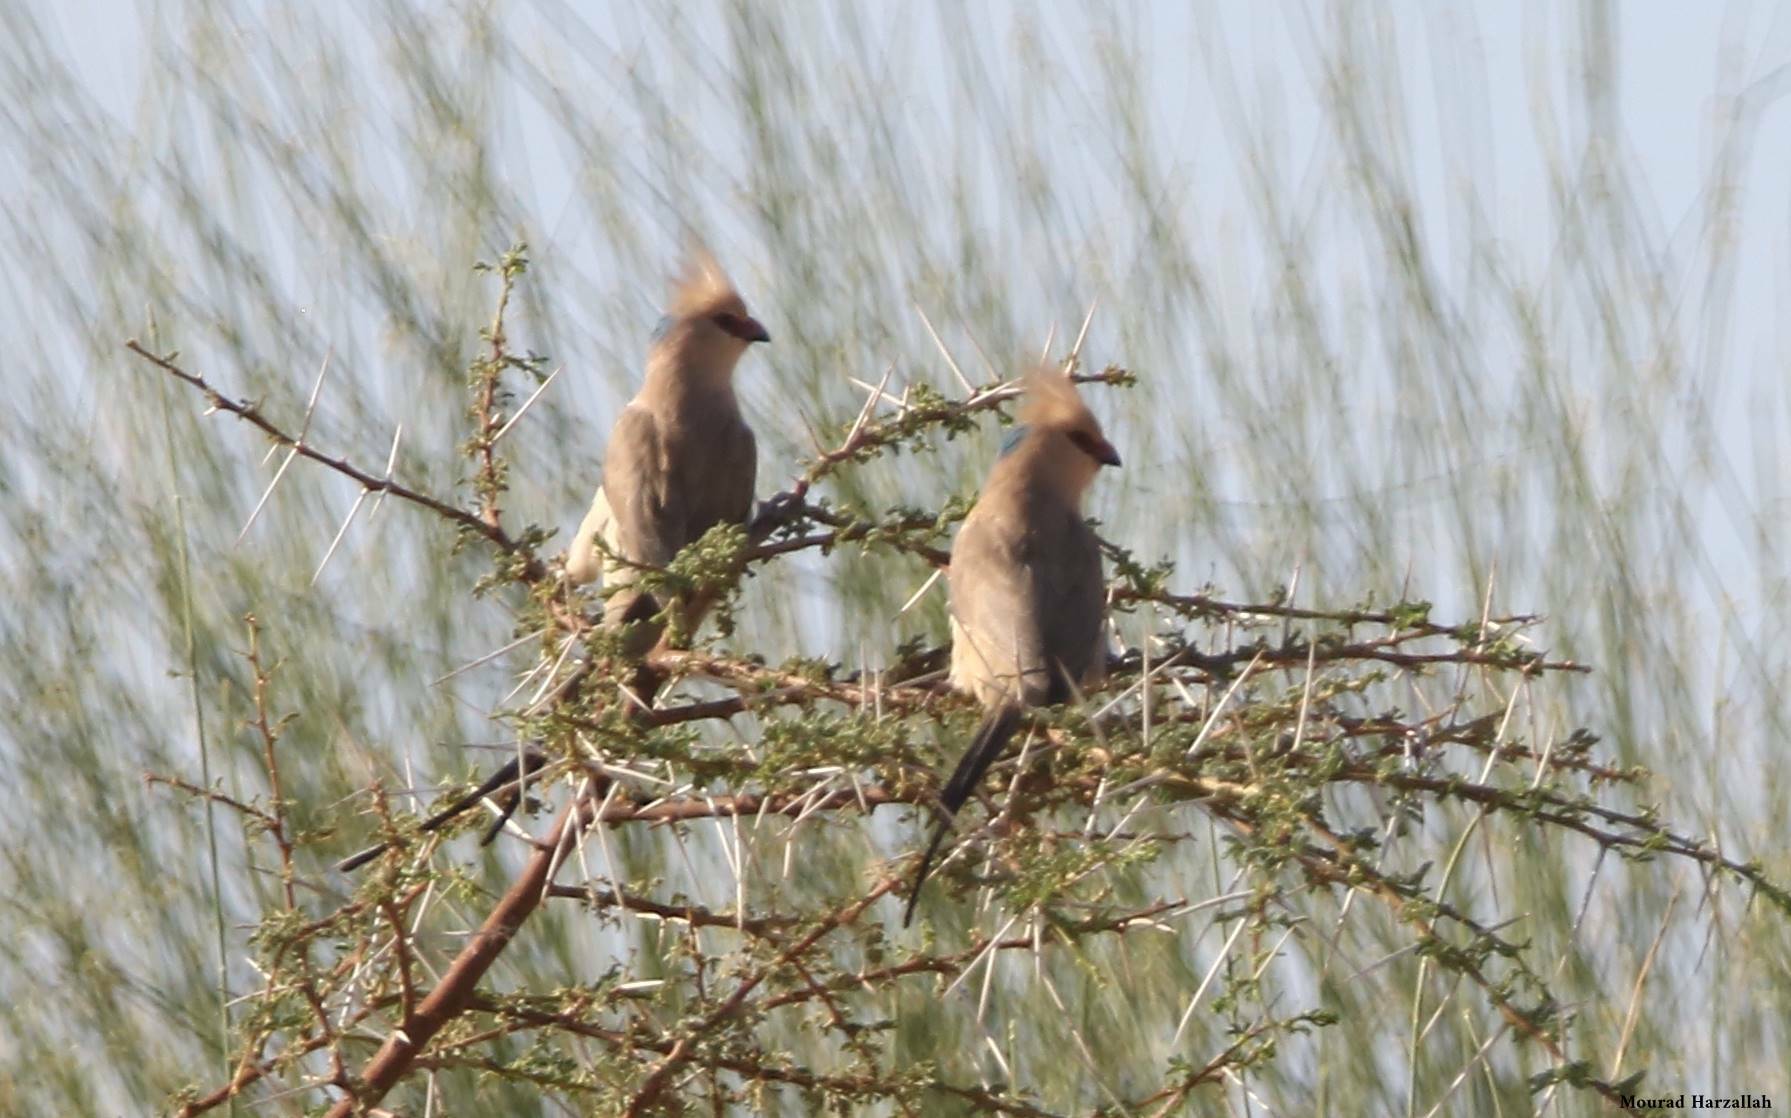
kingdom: Animalia
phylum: Chordata
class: Aves
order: Coliiformes
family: Coliidae
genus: Urocolius
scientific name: Urocolius macrourus
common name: Blue-naped mousebird
